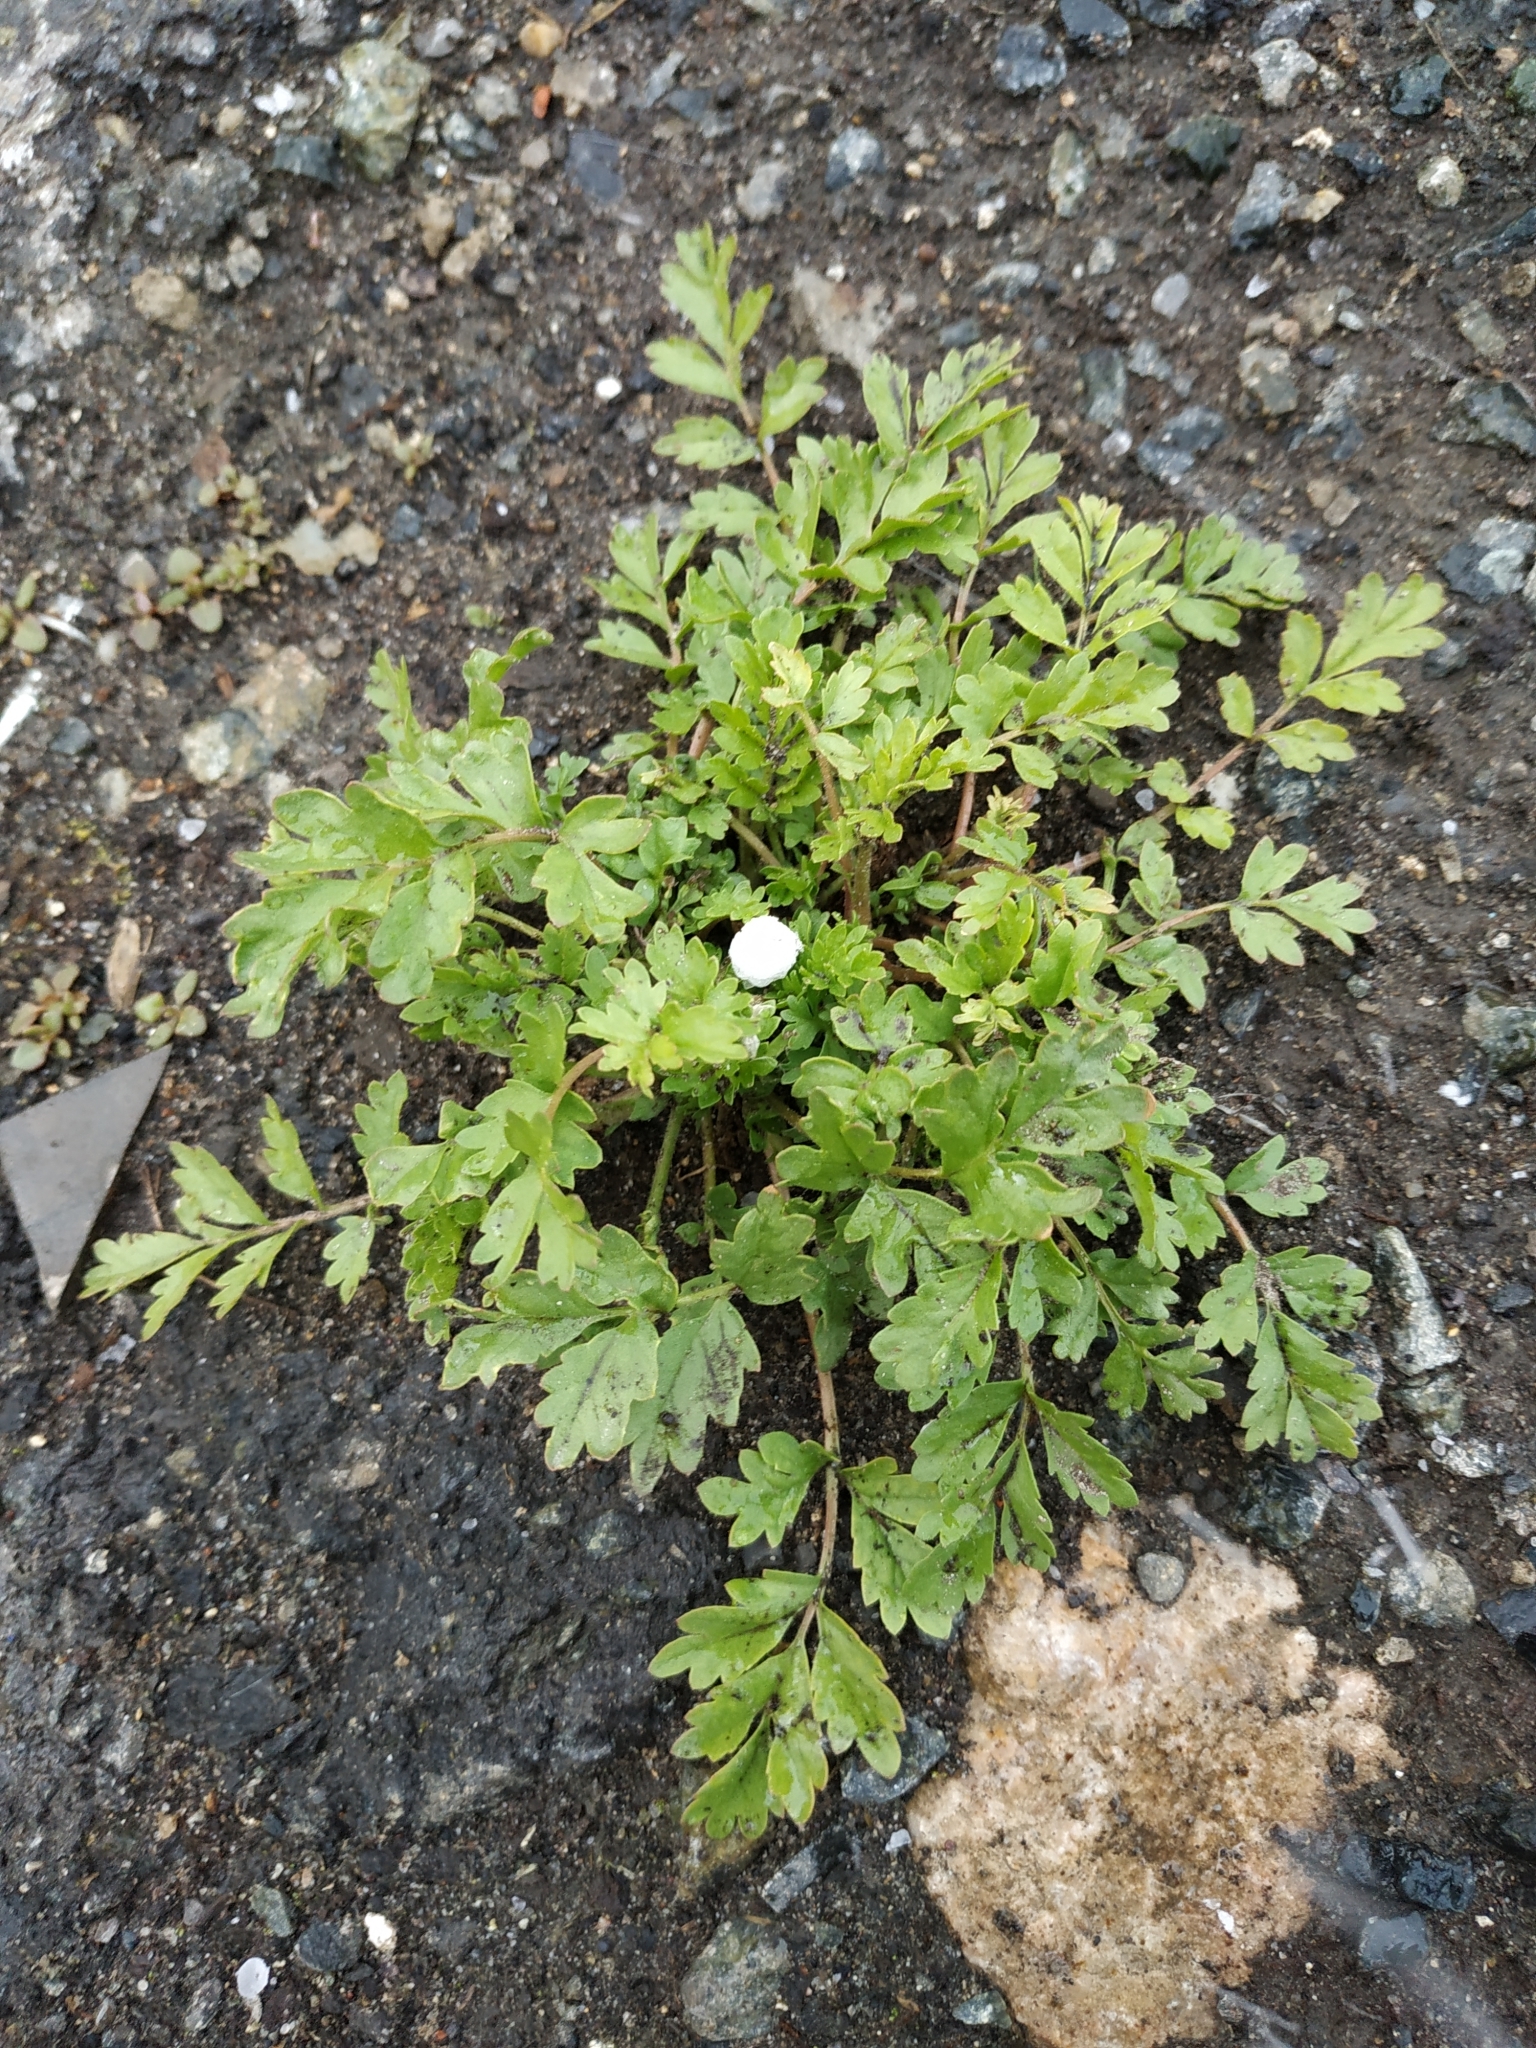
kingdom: Plantae
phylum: Tracheophyta
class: Magnoliopsida
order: Rosales
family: Rosaceae
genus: Potentilla
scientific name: Potentilla supina
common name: Prostrate cinquefoil
